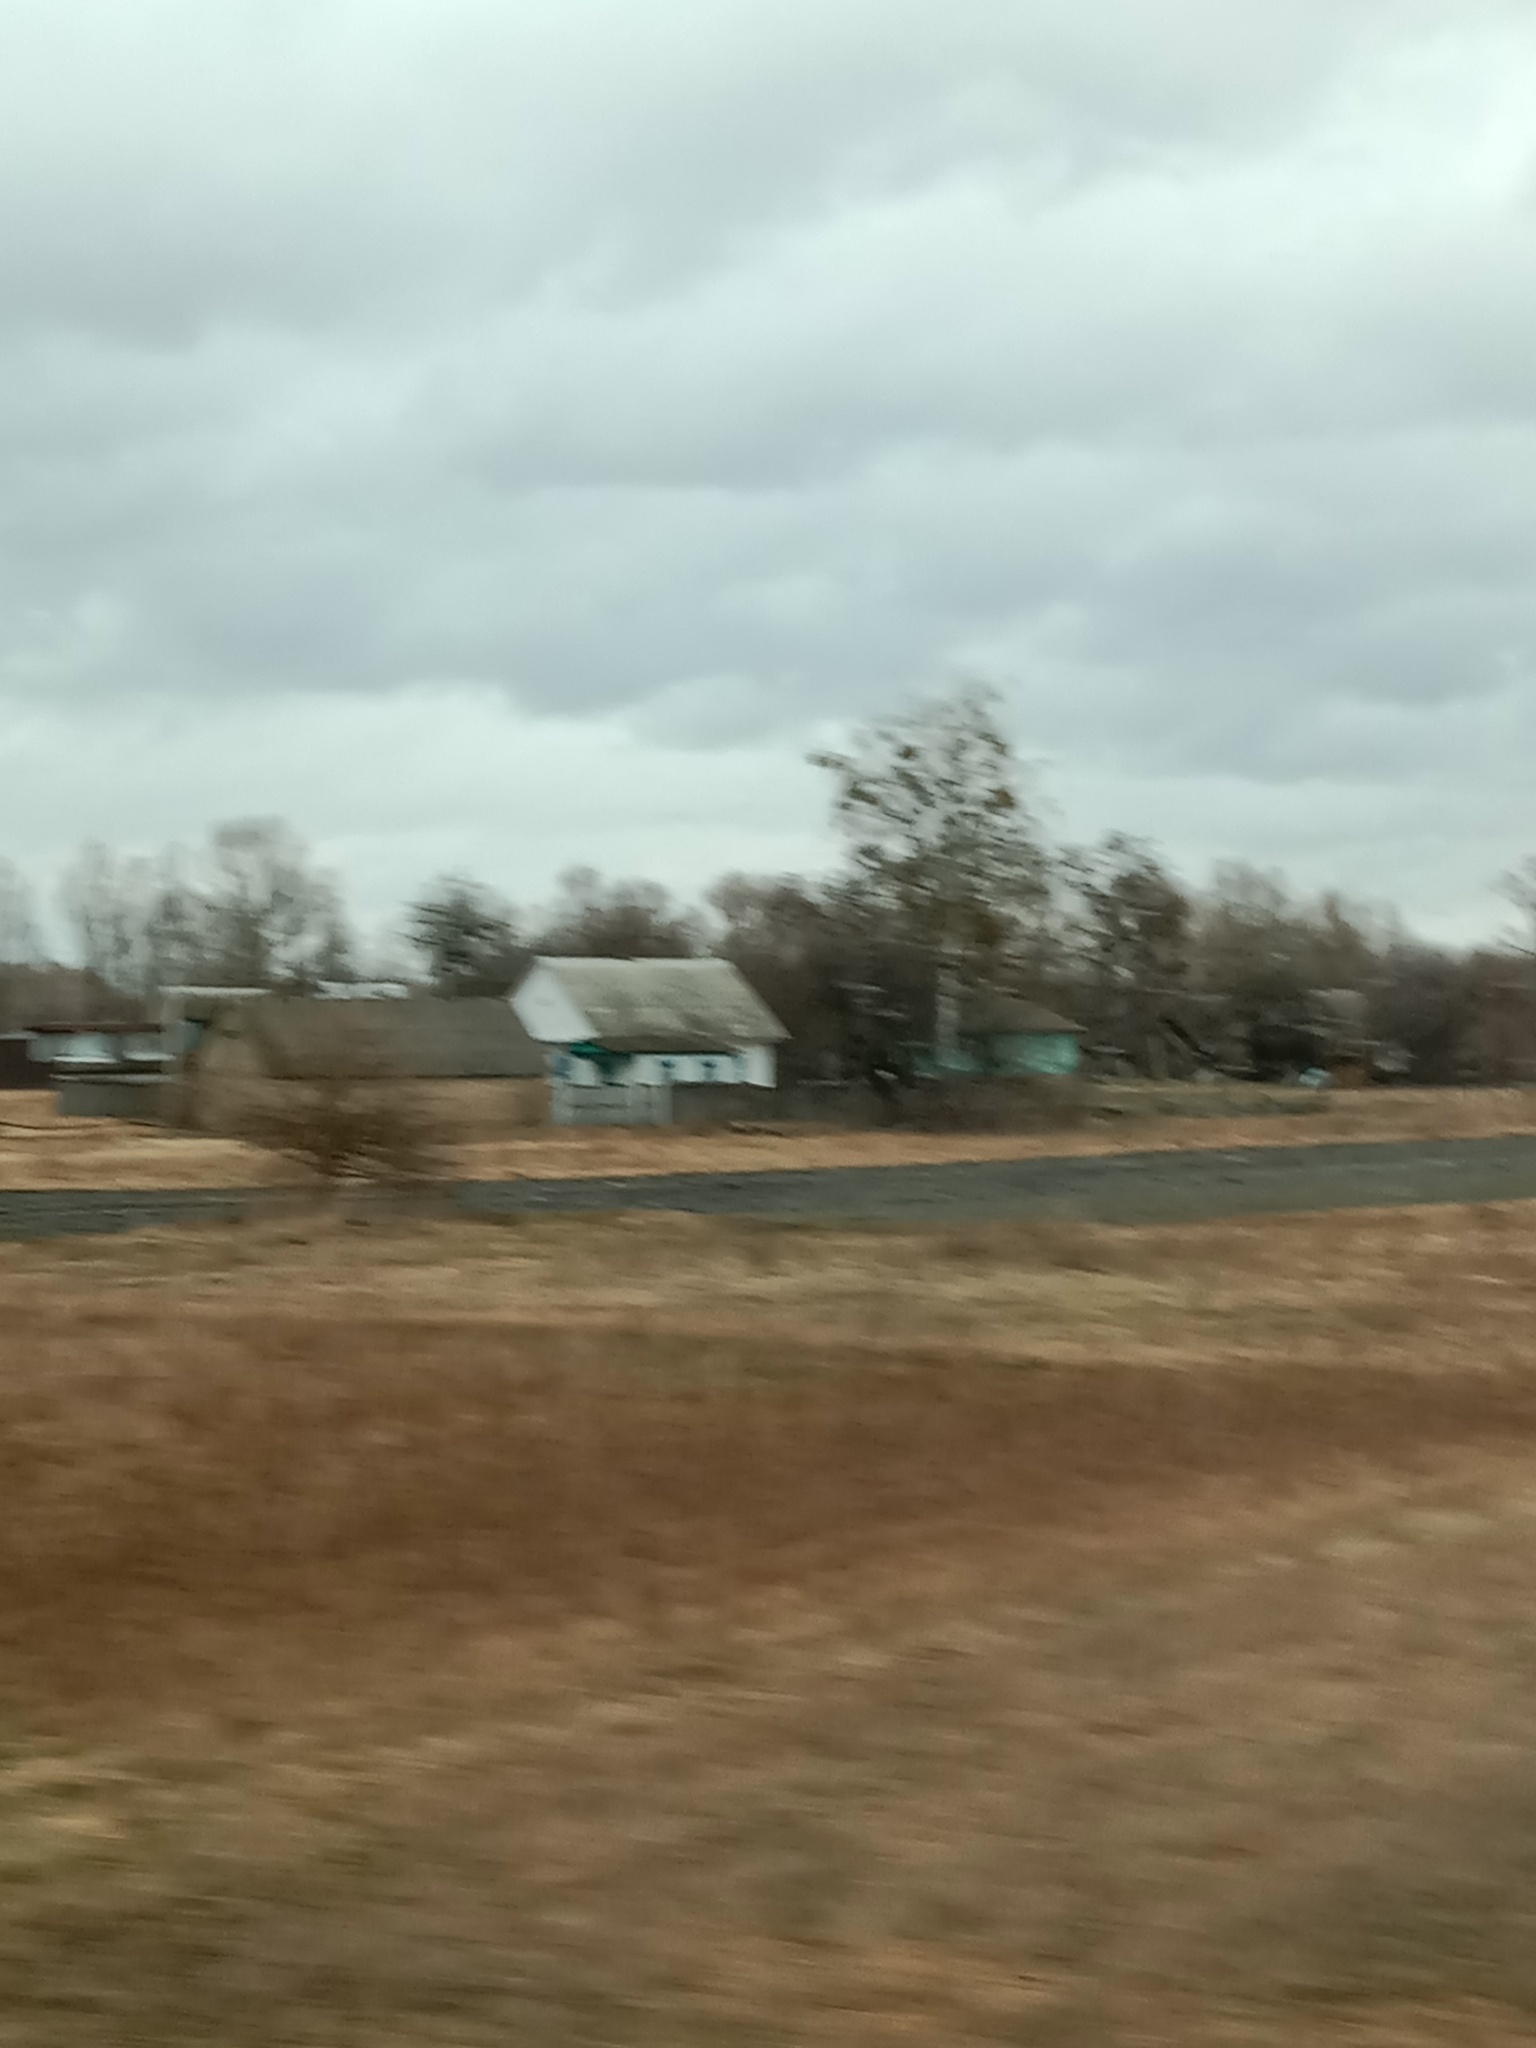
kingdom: Plantae
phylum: Tracheophyta
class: Magnoliopsida
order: Santalales
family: Viscaceae
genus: Viscum
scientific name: Viscum album
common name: Mistletoe
